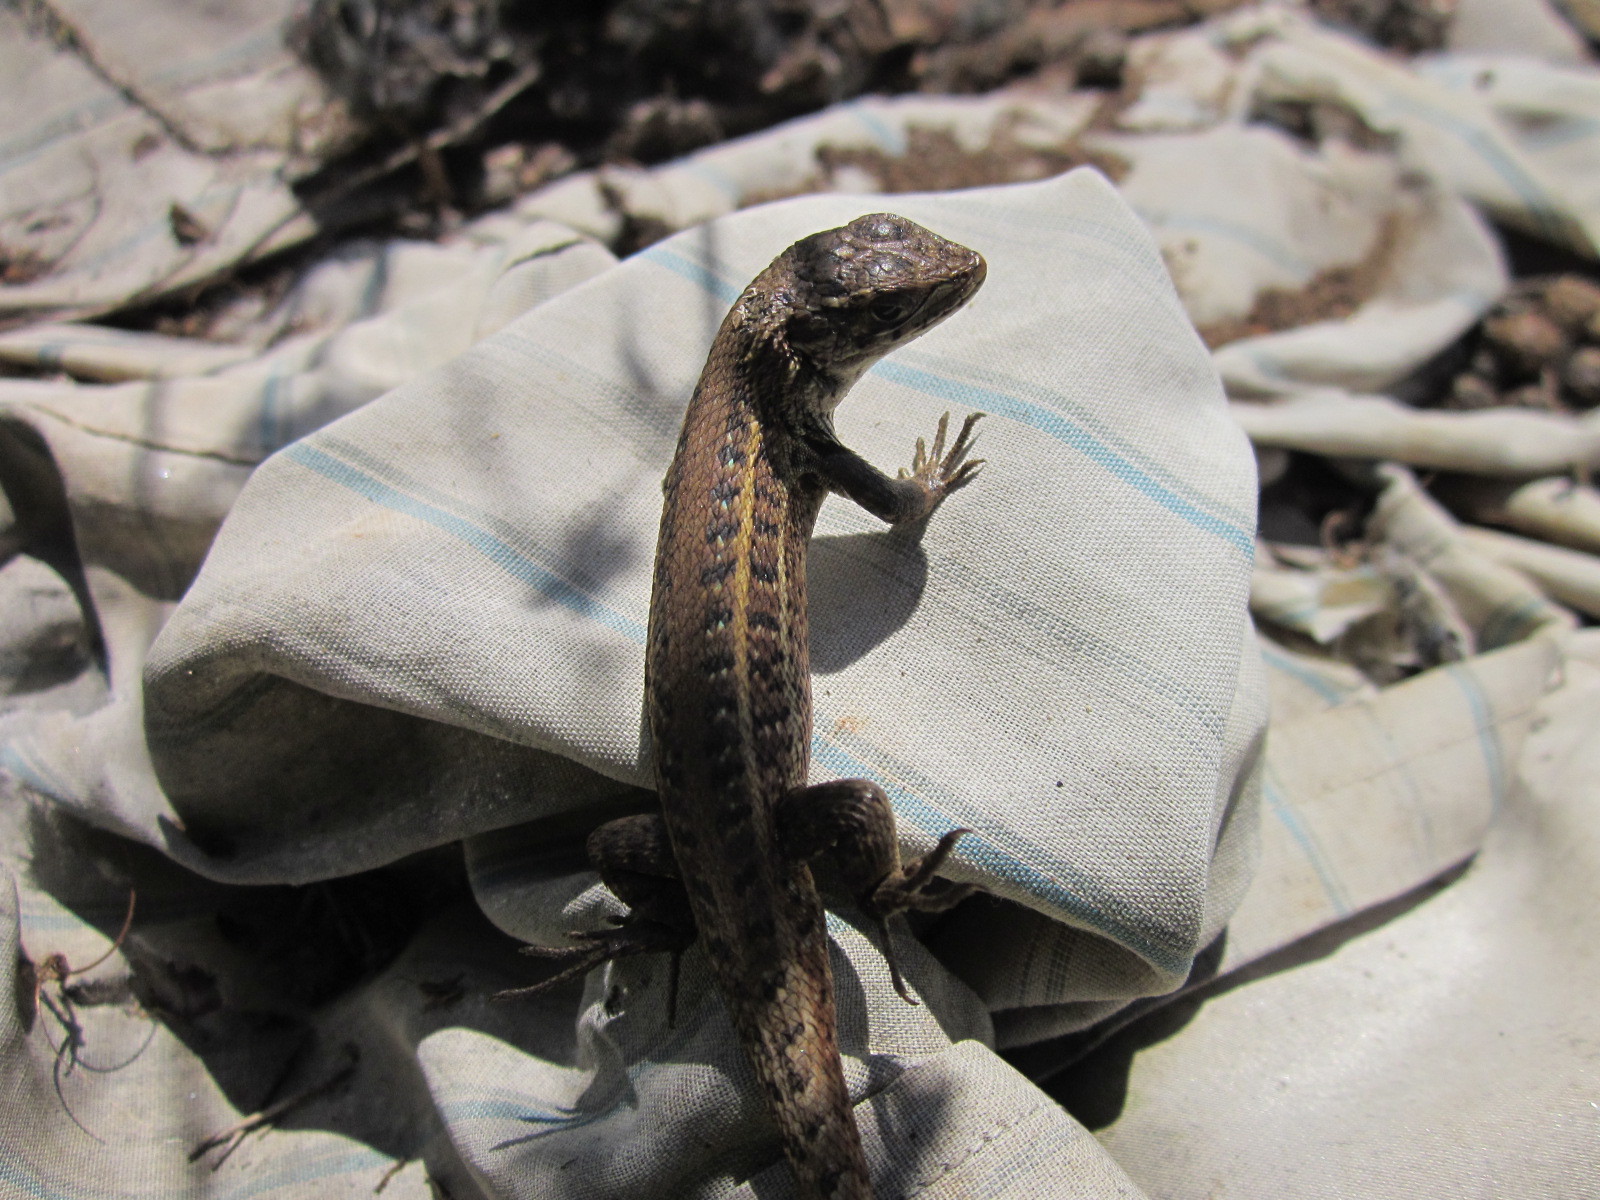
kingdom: Animalia
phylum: Chordata
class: Squamata
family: Liolaemidae
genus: Liolaemus
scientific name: Liolaemus lemniscatus
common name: Wreath tree iguana
